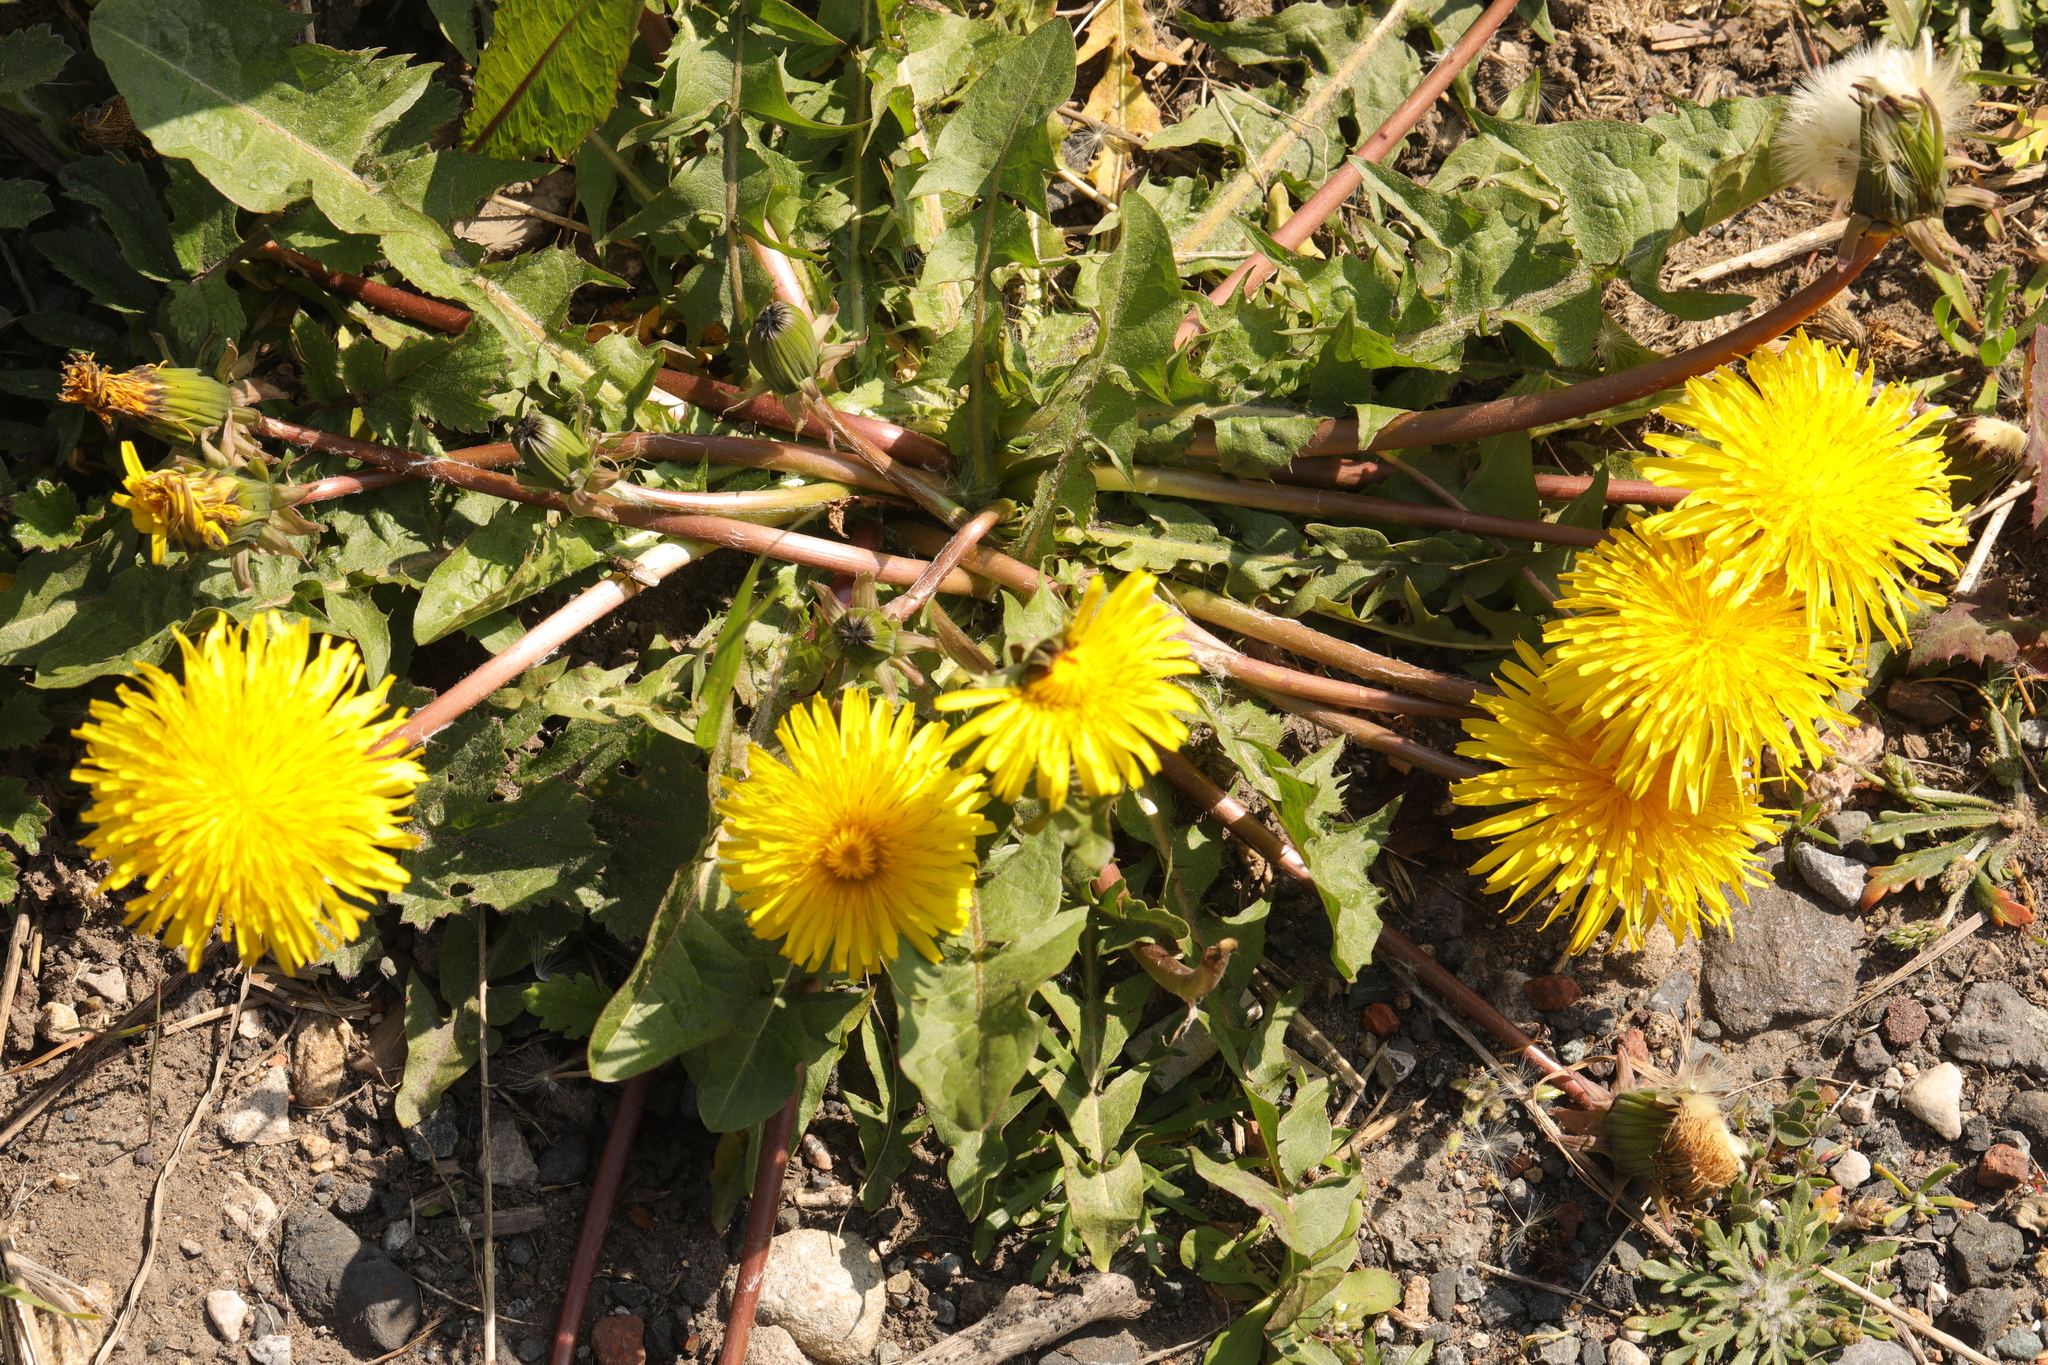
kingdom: Plantae
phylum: Tracheophyta
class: Magnoliopsida
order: Asterales
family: Asteraceae
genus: Taraxacum
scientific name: Taraxacum officinale
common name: Common dandelion
